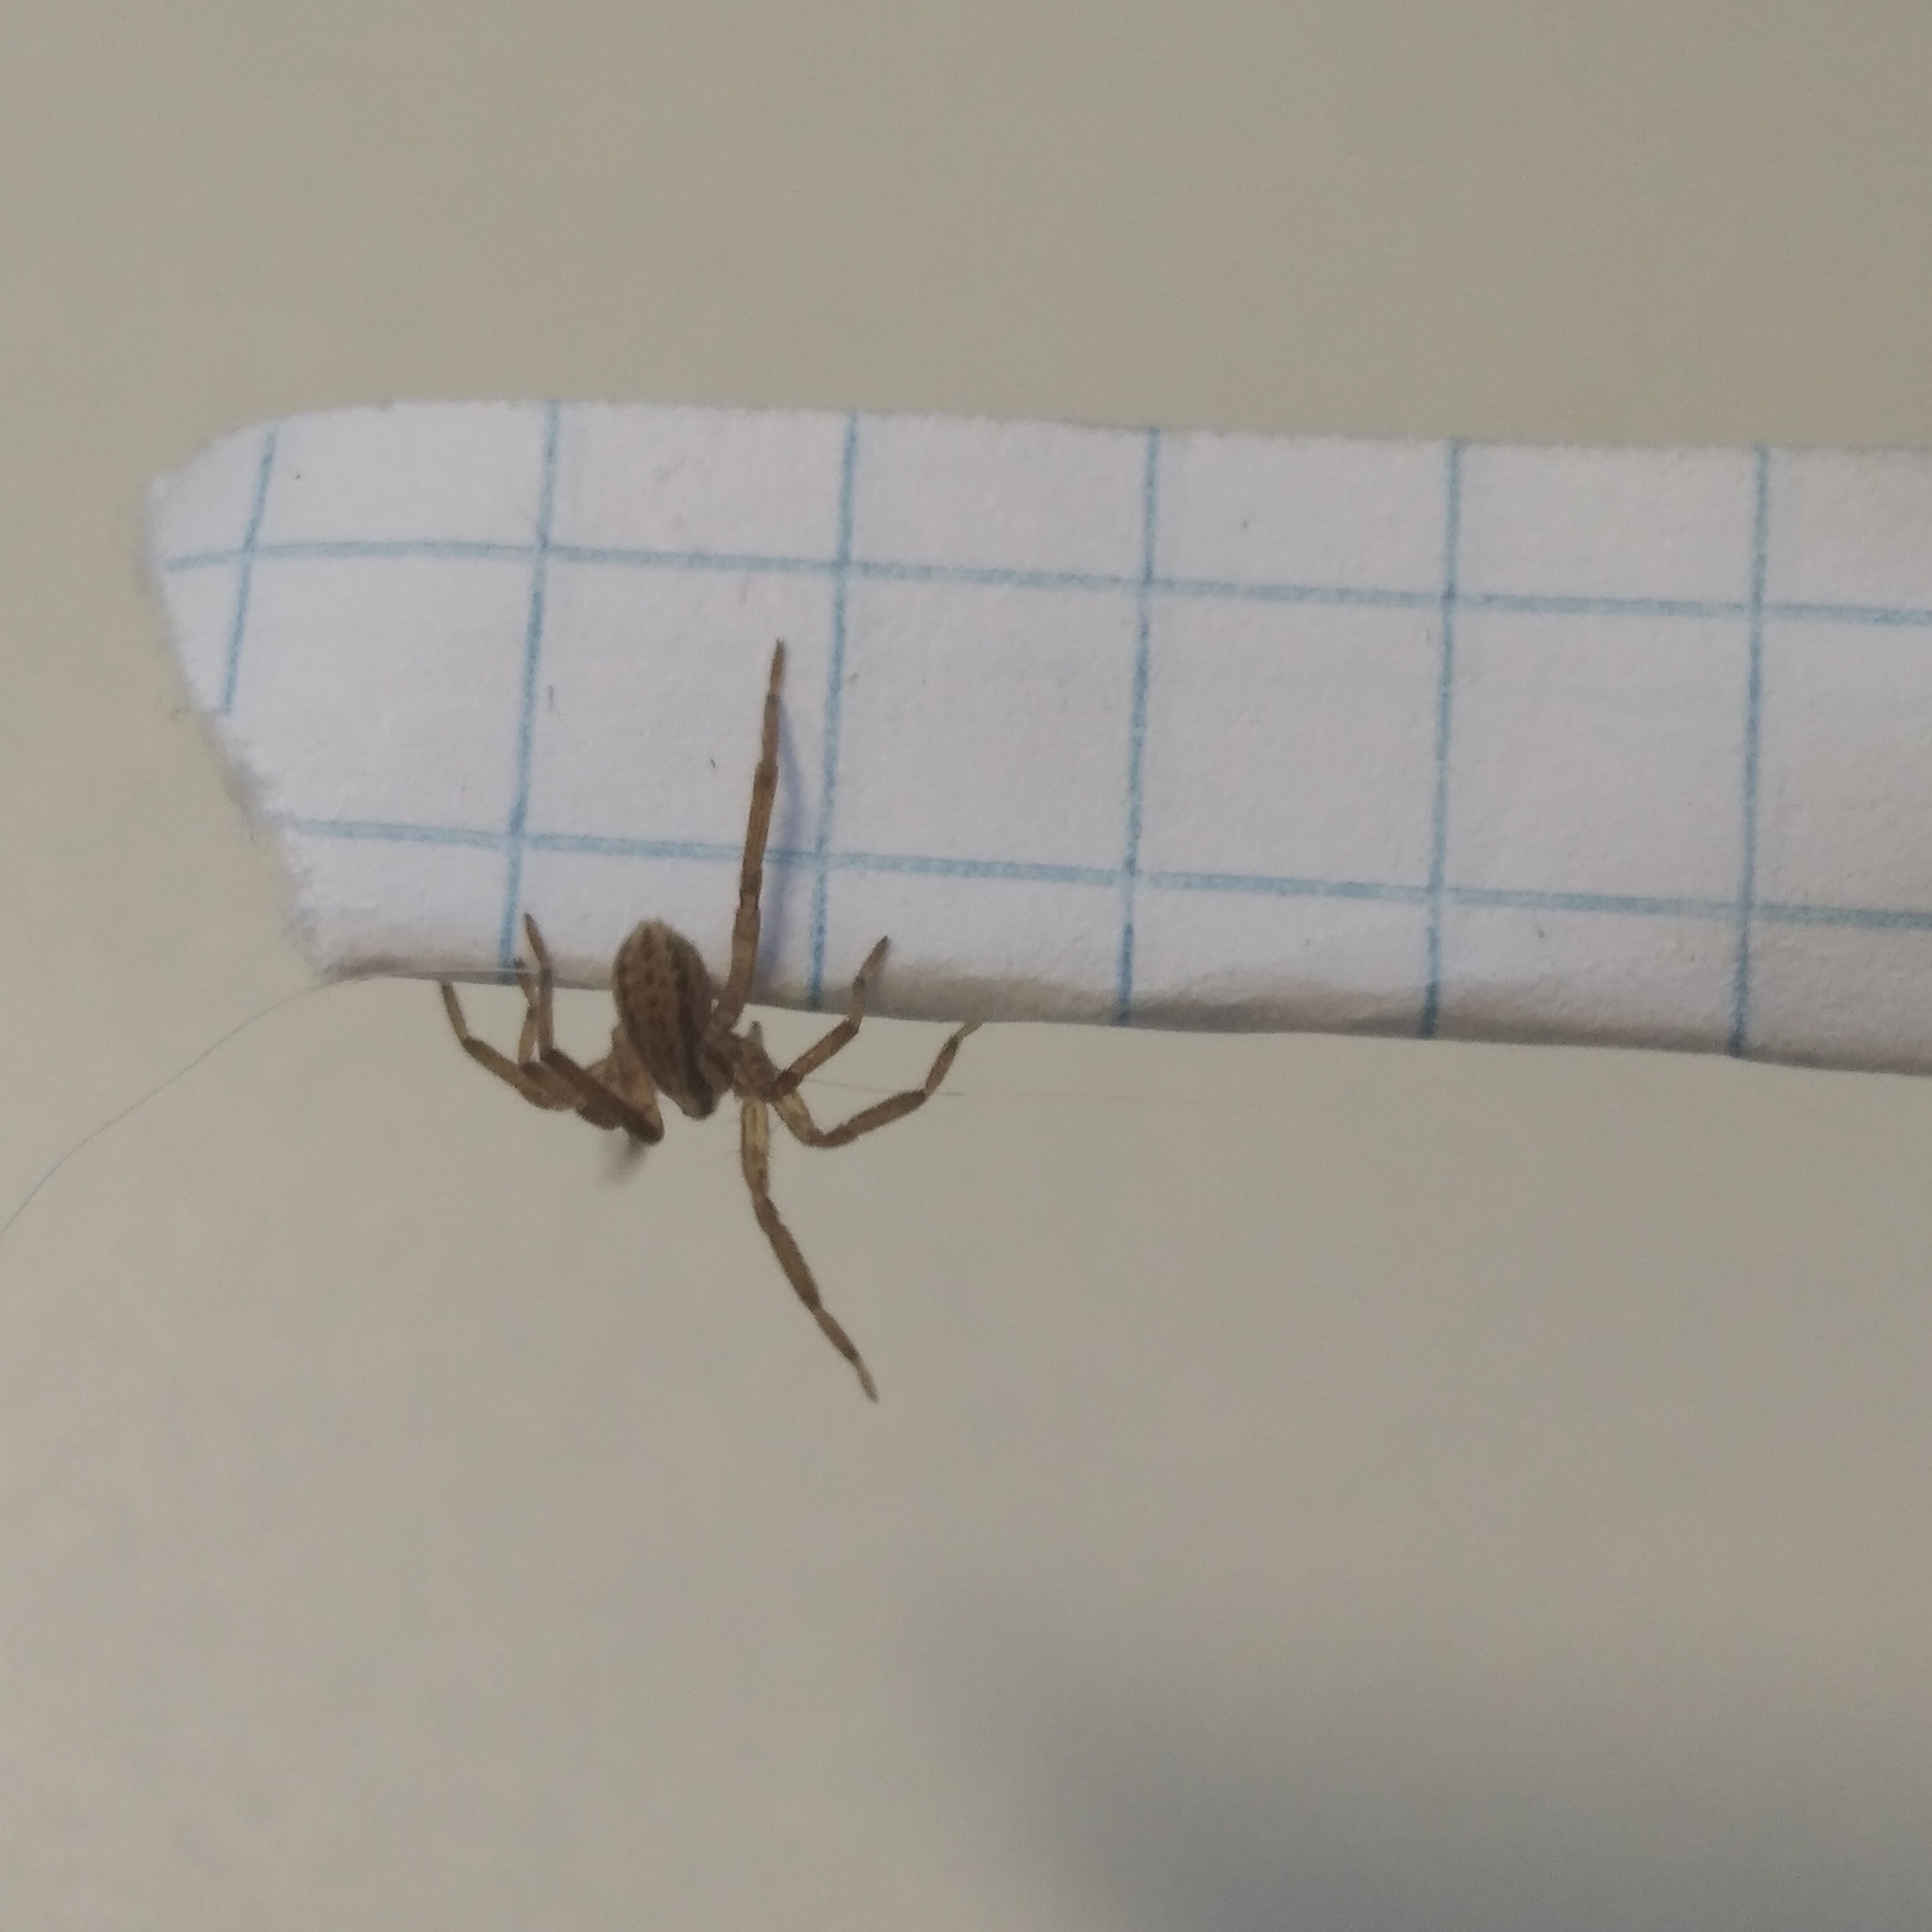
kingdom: Animalia
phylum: Arthropoda
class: Arachnida
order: Araneae
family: Miturgidae
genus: Zora
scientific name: Zora spinimana
